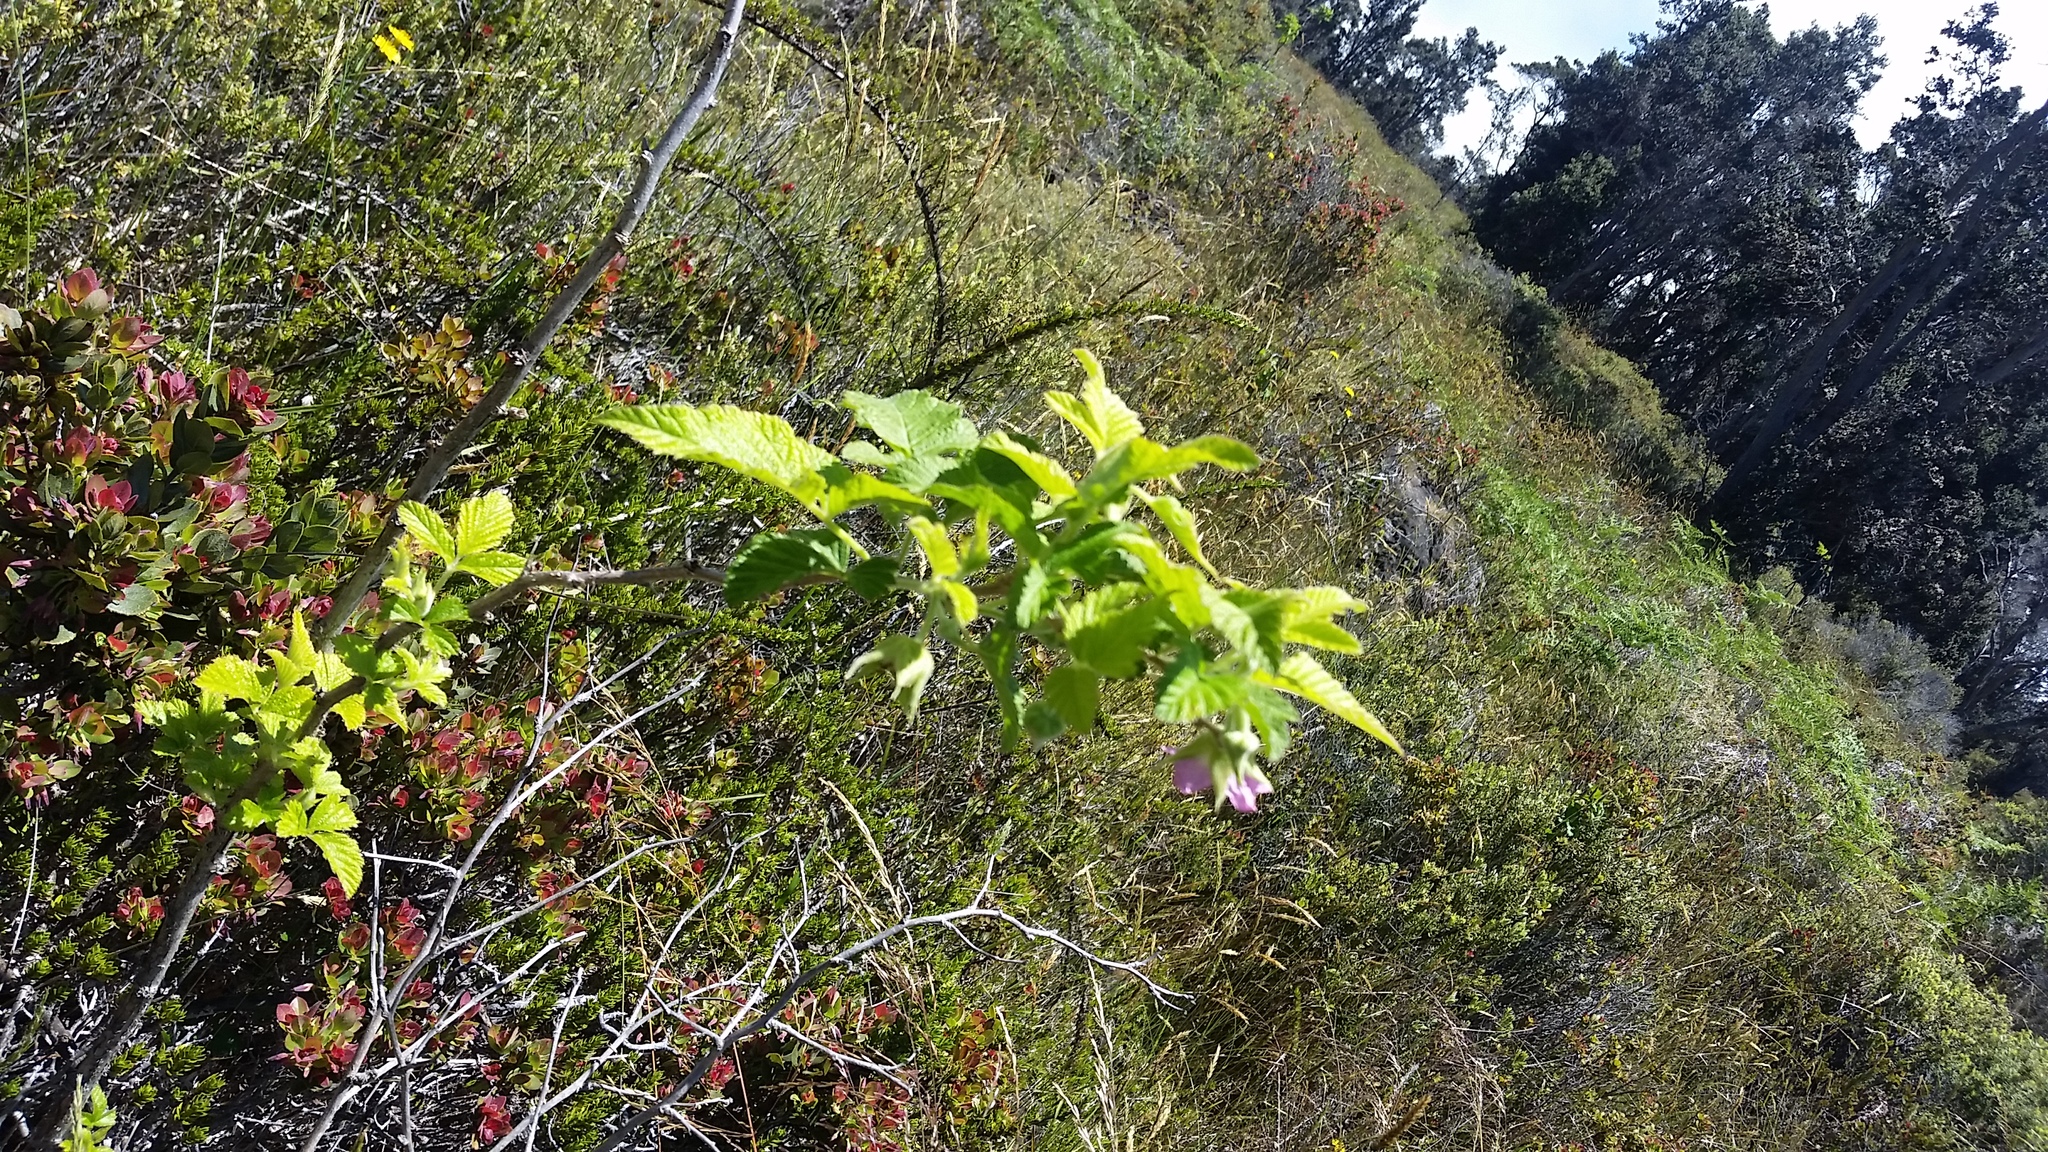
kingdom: Plantae
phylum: Tracheophyta
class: Magnoliopsida
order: Rosales
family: Rosaceae
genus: Rubus
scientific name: Rubus hawaiensis
